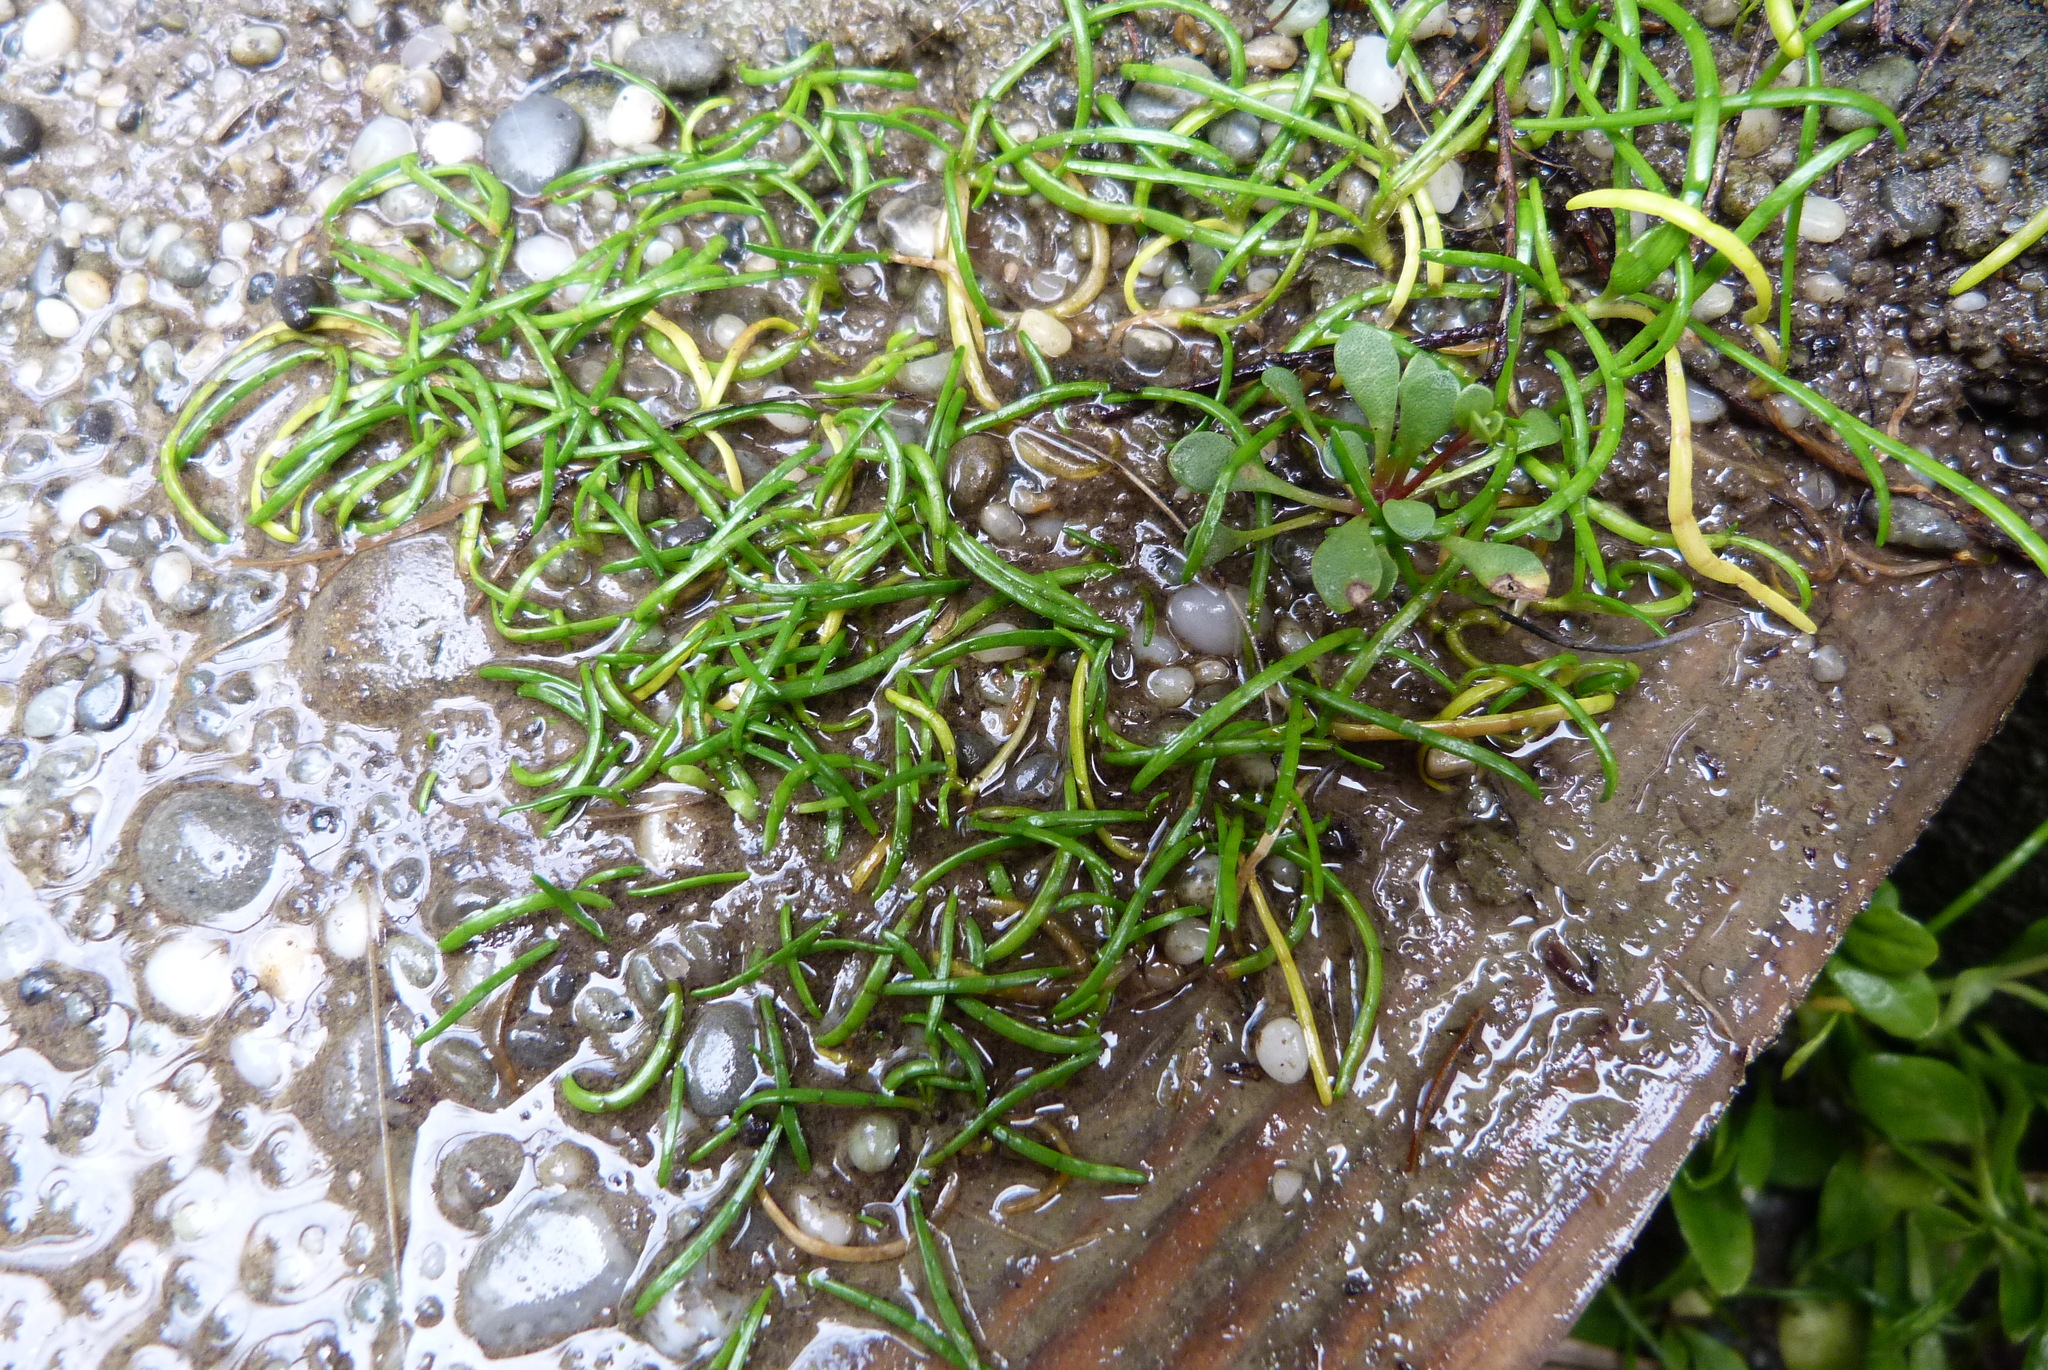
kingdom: Plantae
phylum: Tracheophyta
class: Magnoliopsida
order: Apiales
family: Apiaceae
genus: Lilaeopsis
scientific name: Lilaeopsis novae-zelandiae
